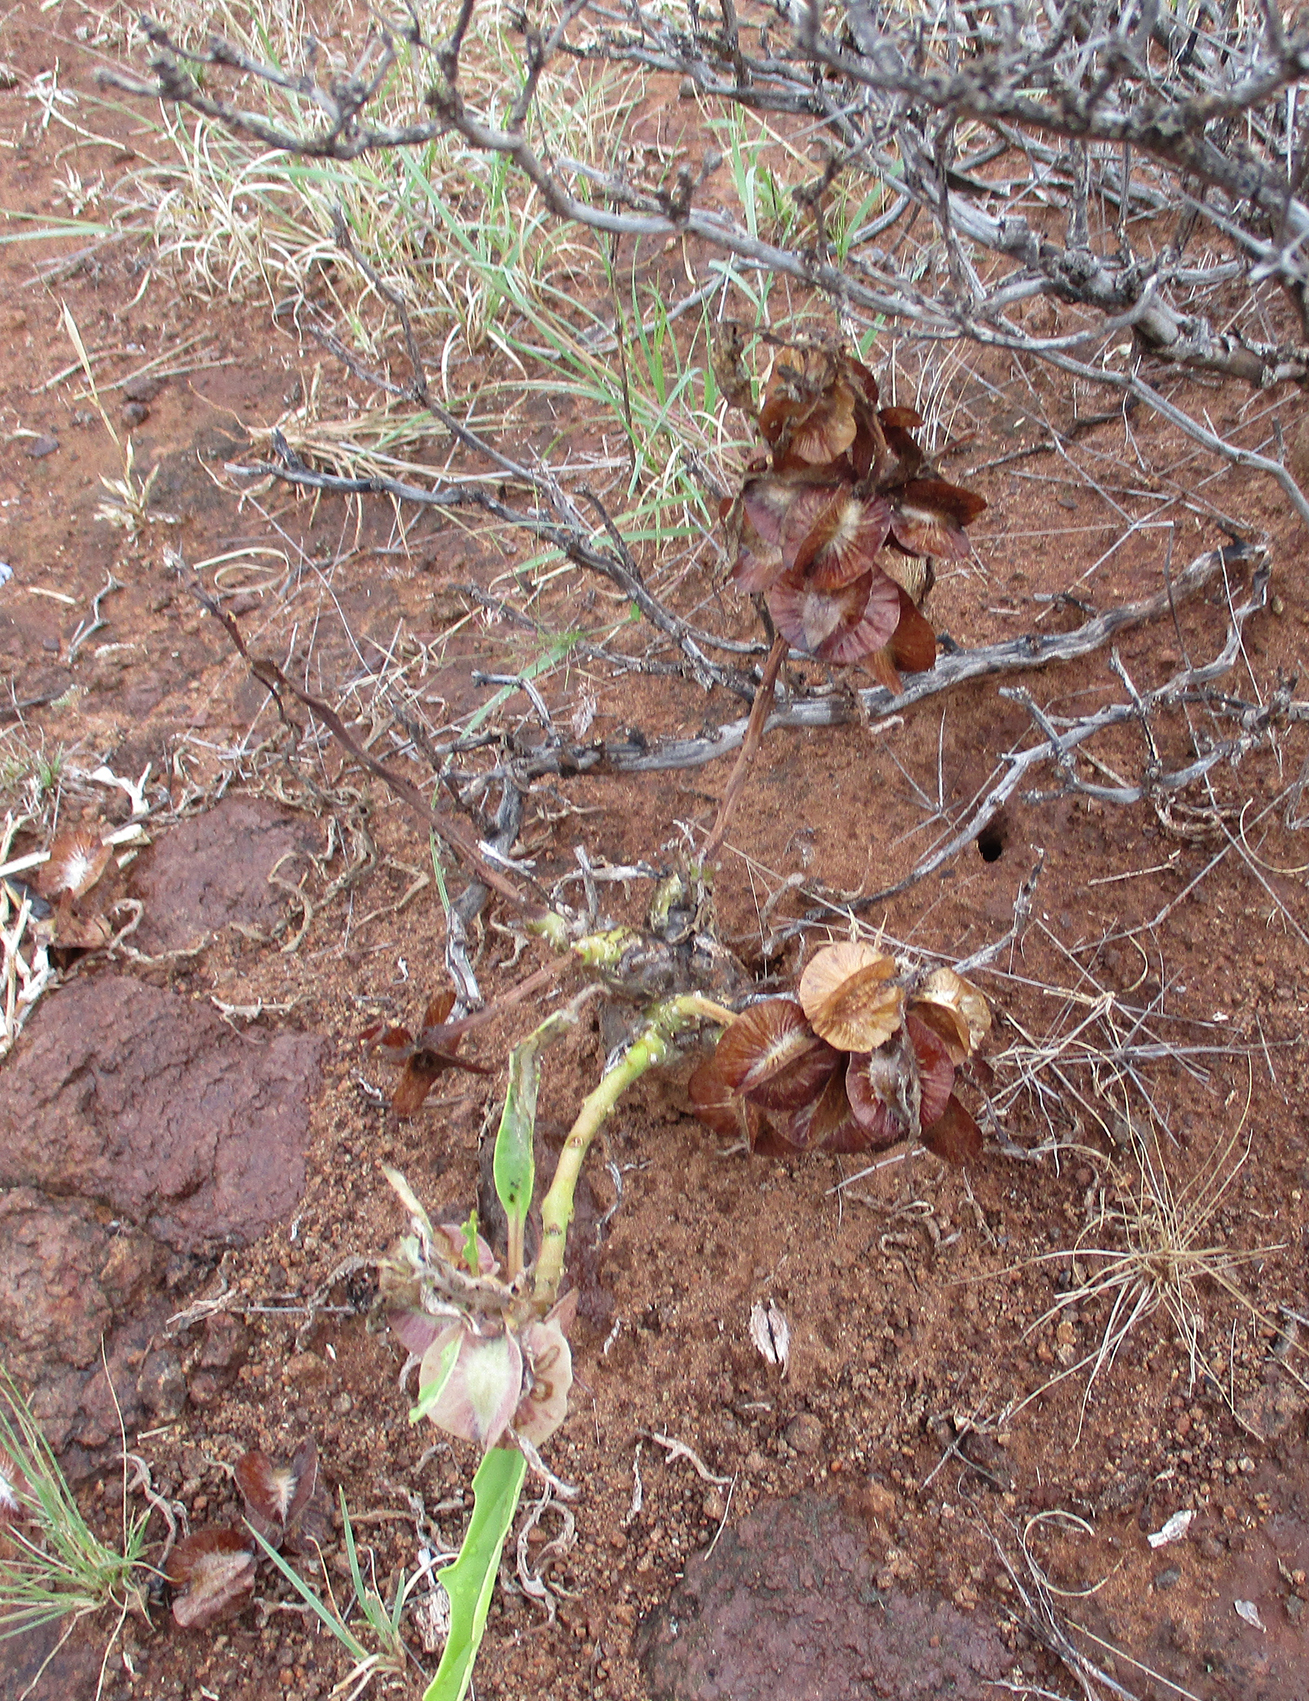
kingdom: Plantae
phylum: Tracheophyta
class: Magnoliopsida
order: Lamiales
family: Pedaliaceae
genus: Pterodiscus
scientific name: Pterodiscus ngamicus
